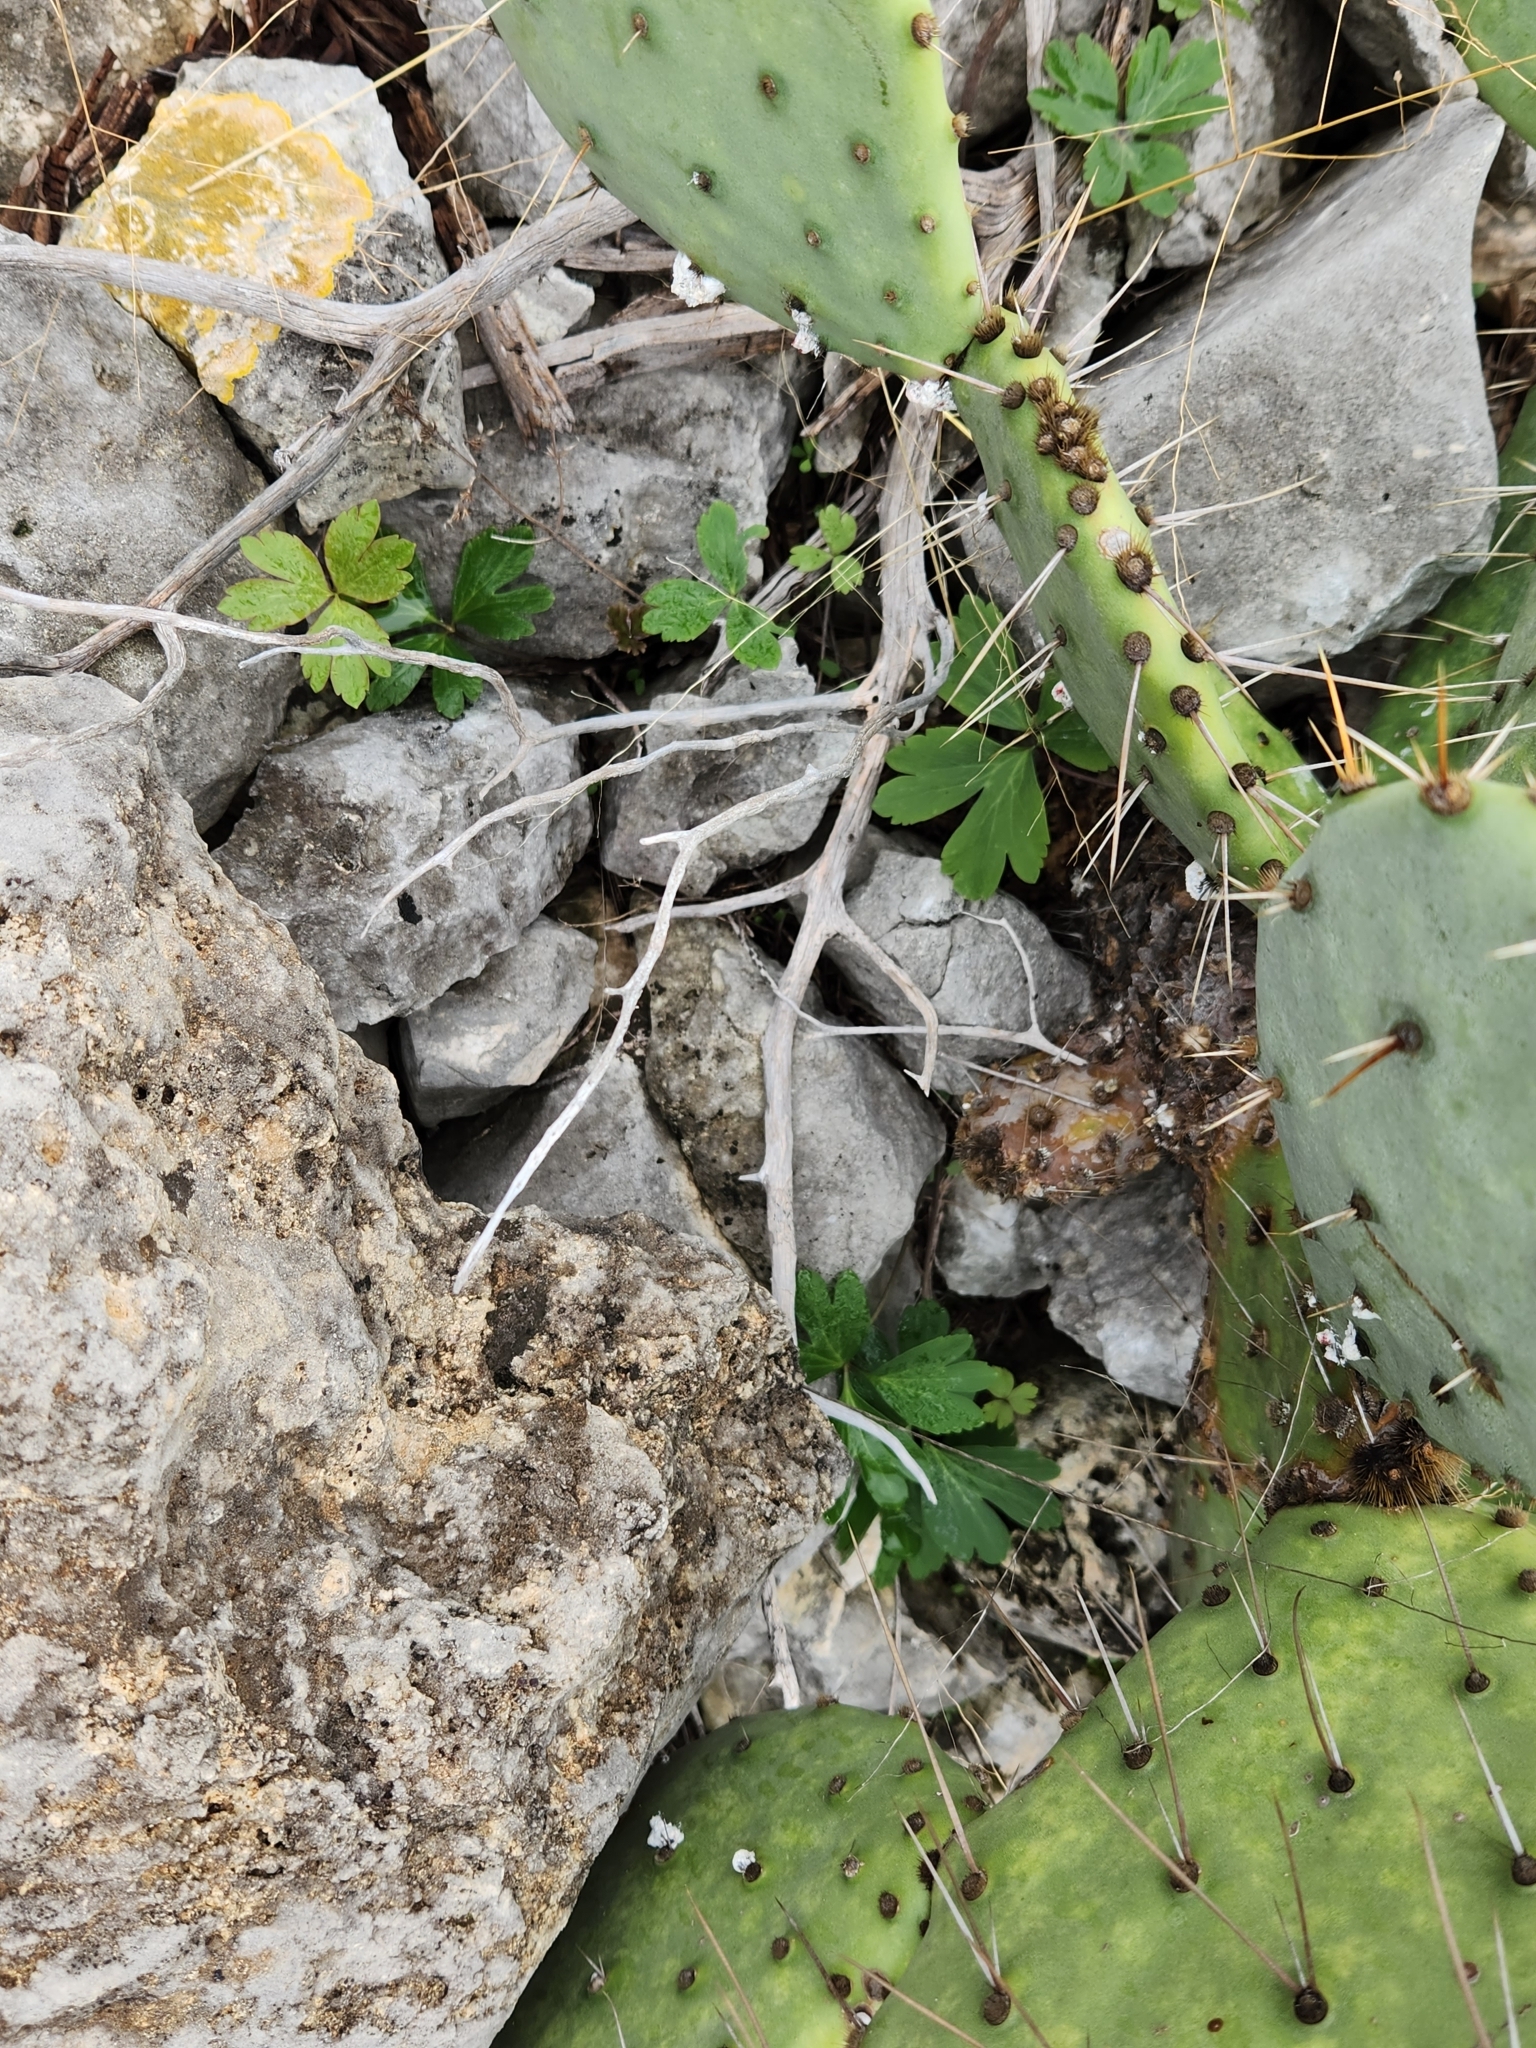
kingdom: Plantae
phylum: Tracheophyta
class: Magnoliopsida
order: Ranunculales
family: Ranunculaceae
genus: Anemone
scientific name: Anemone edwardsiana
